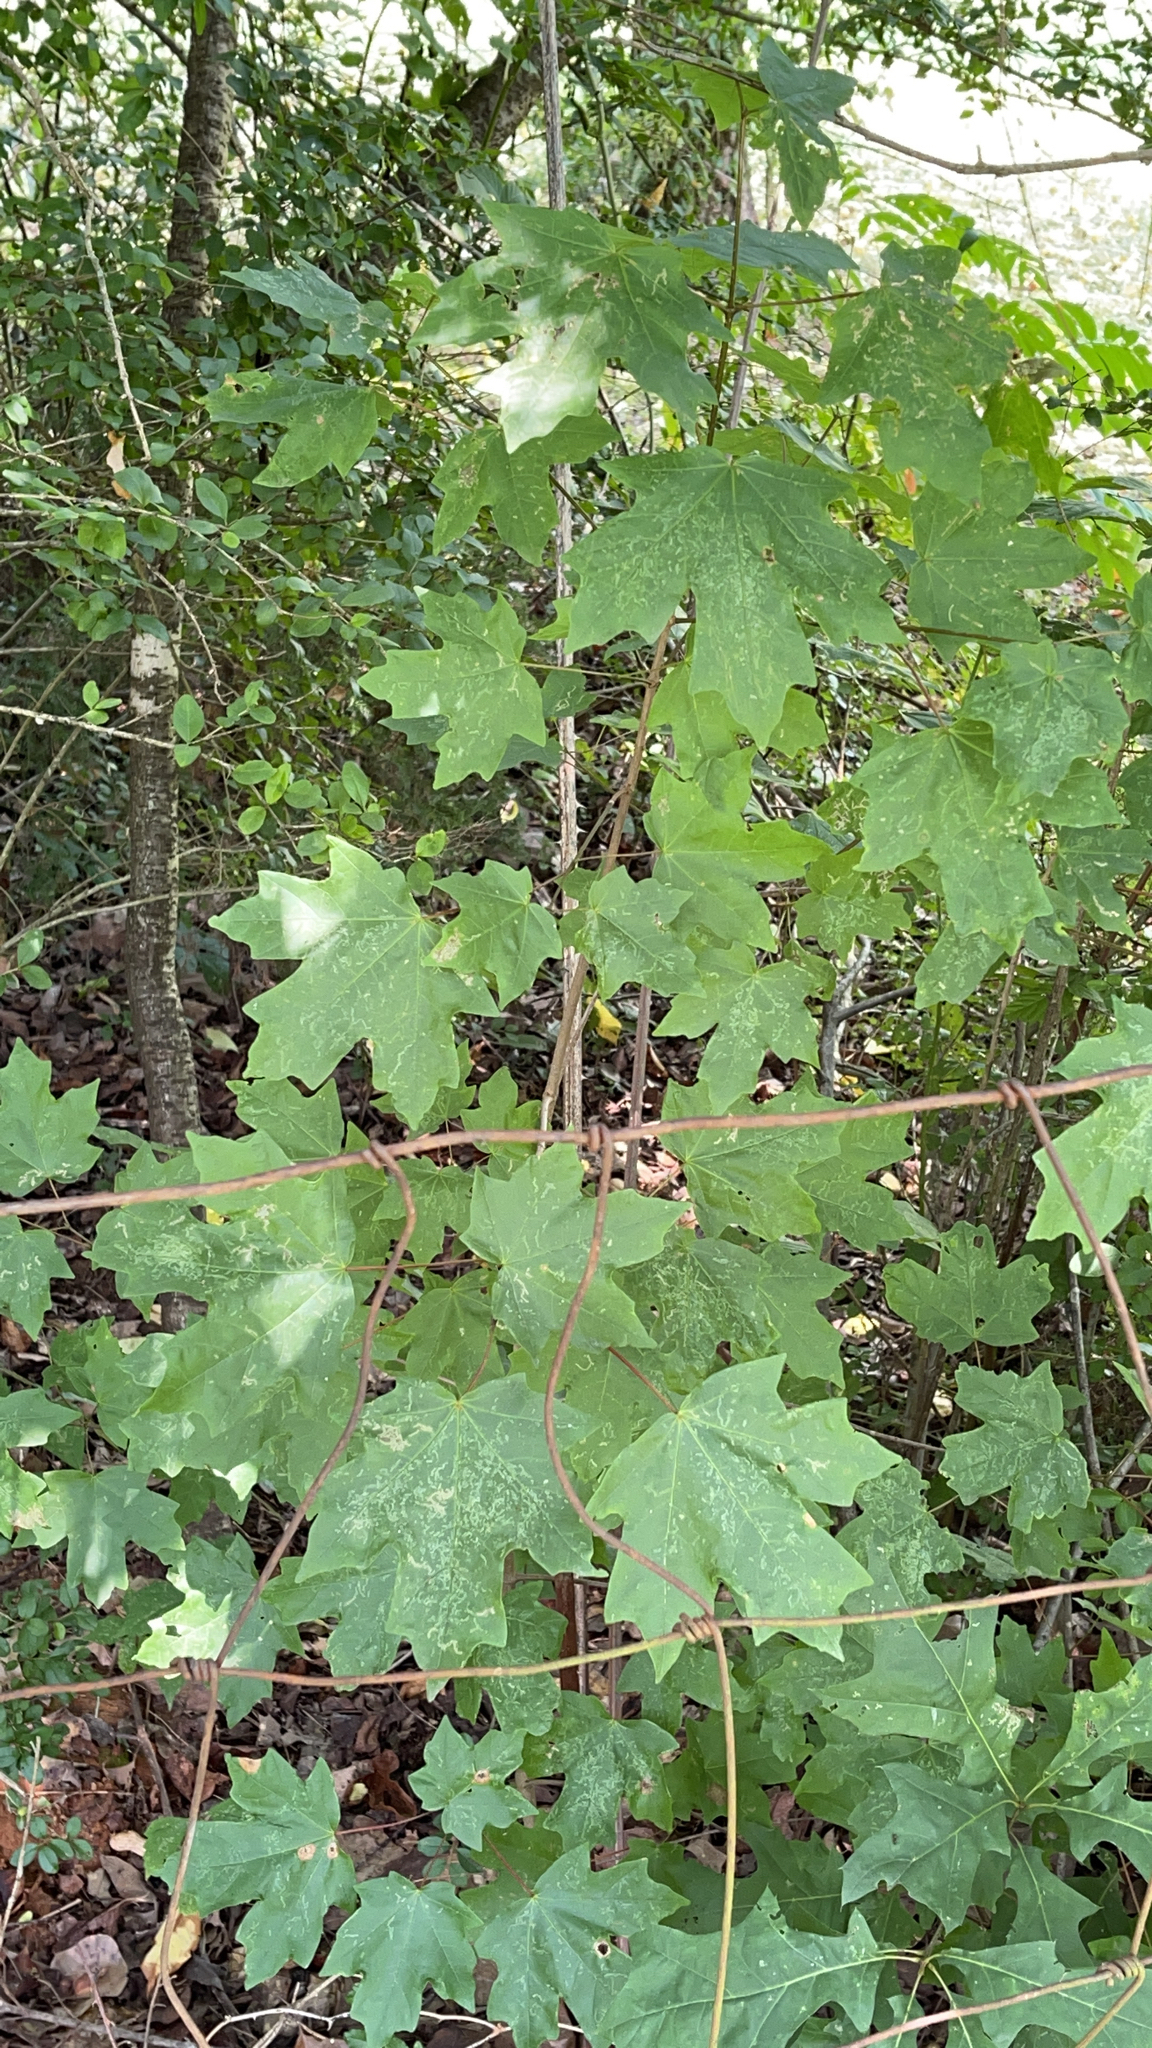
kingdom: Plantae
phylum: Tracheophyta
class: Magnoliopsida
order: Sapindales
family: Sapindaceae
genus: Acer
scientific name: Acer floridanum
